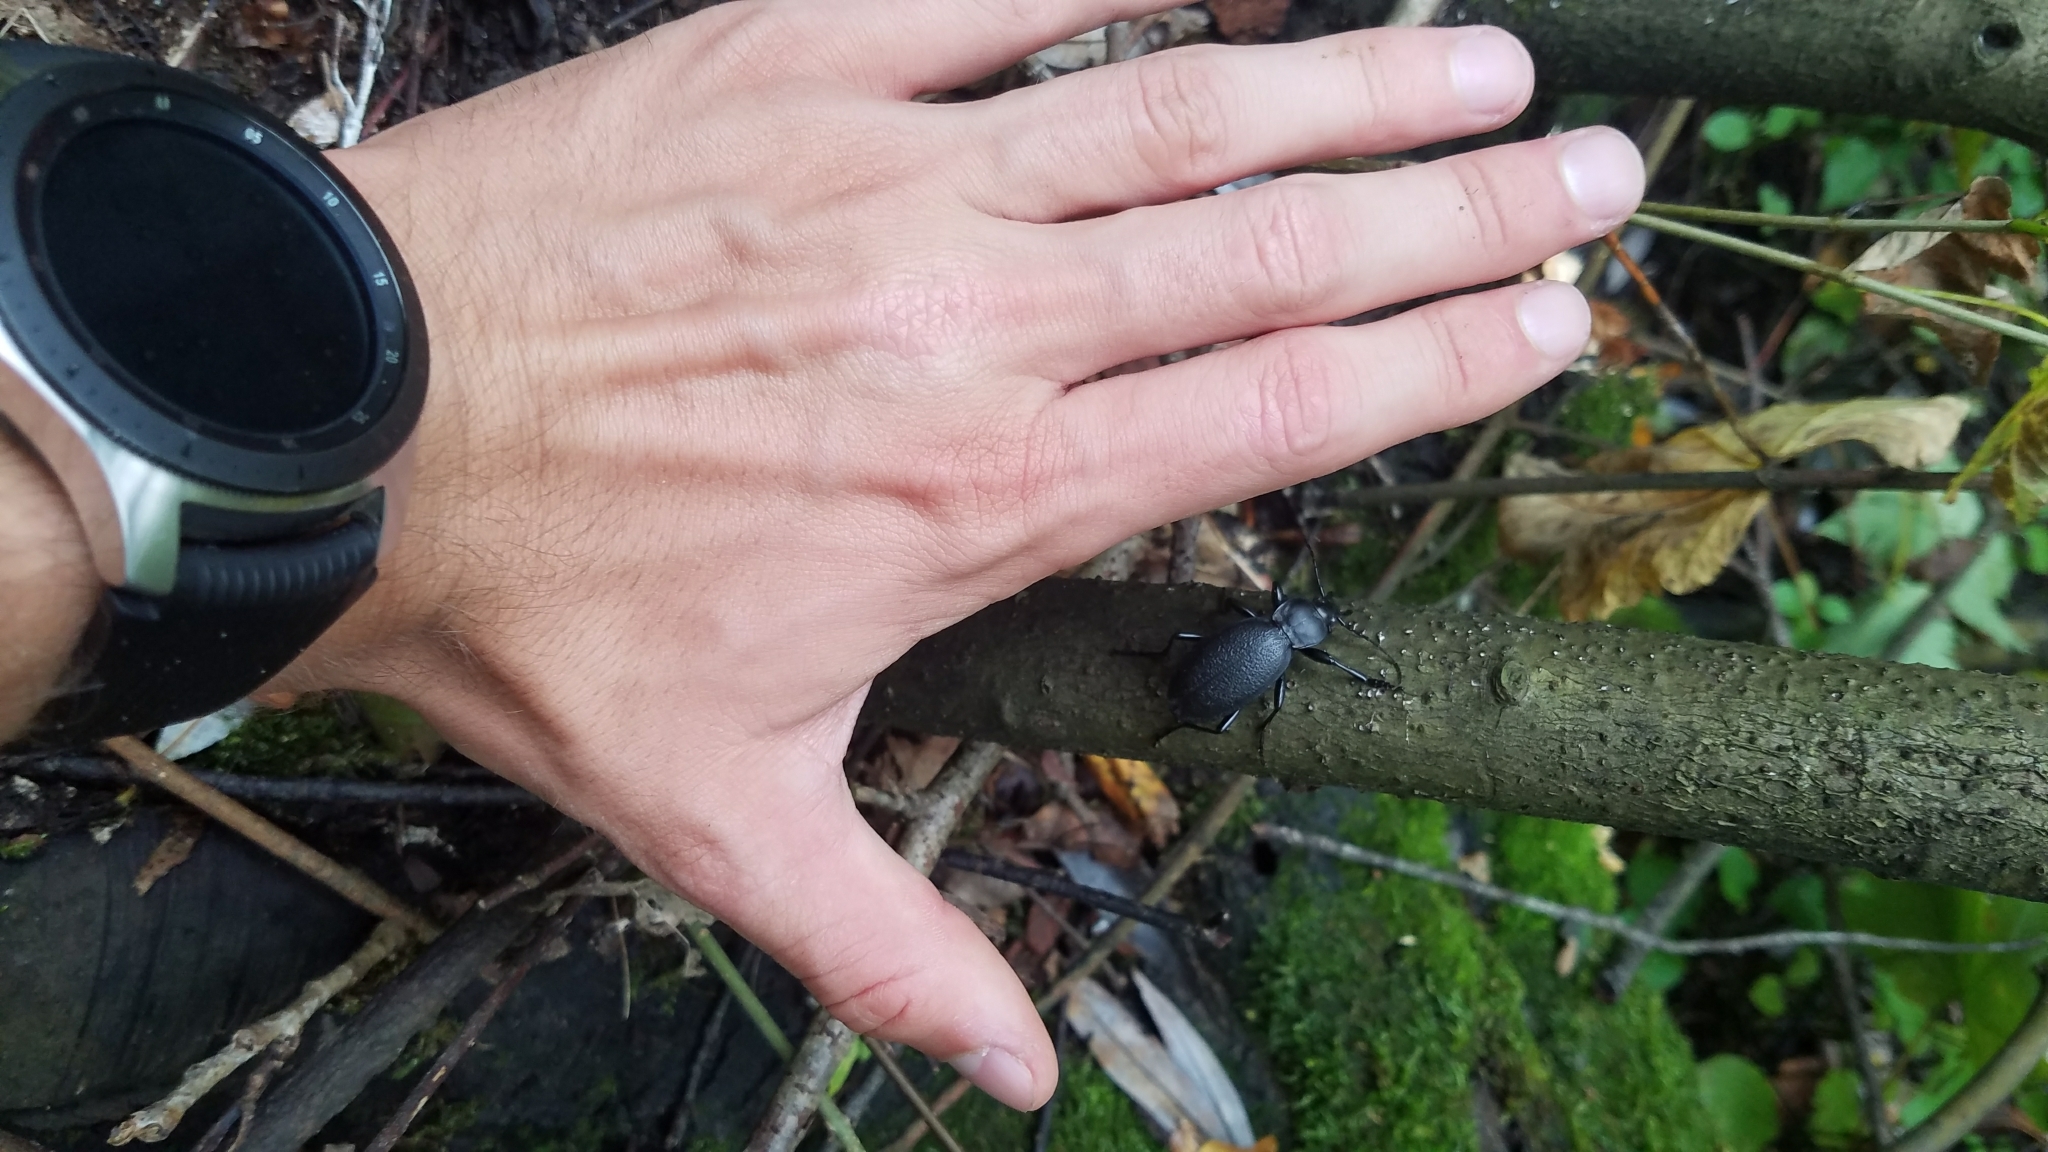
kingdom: Animalia
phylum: Arthropoda
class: Insecta
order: Coleoptera
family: Carabidae
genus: Carabus
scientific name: Carabus coriaceus
